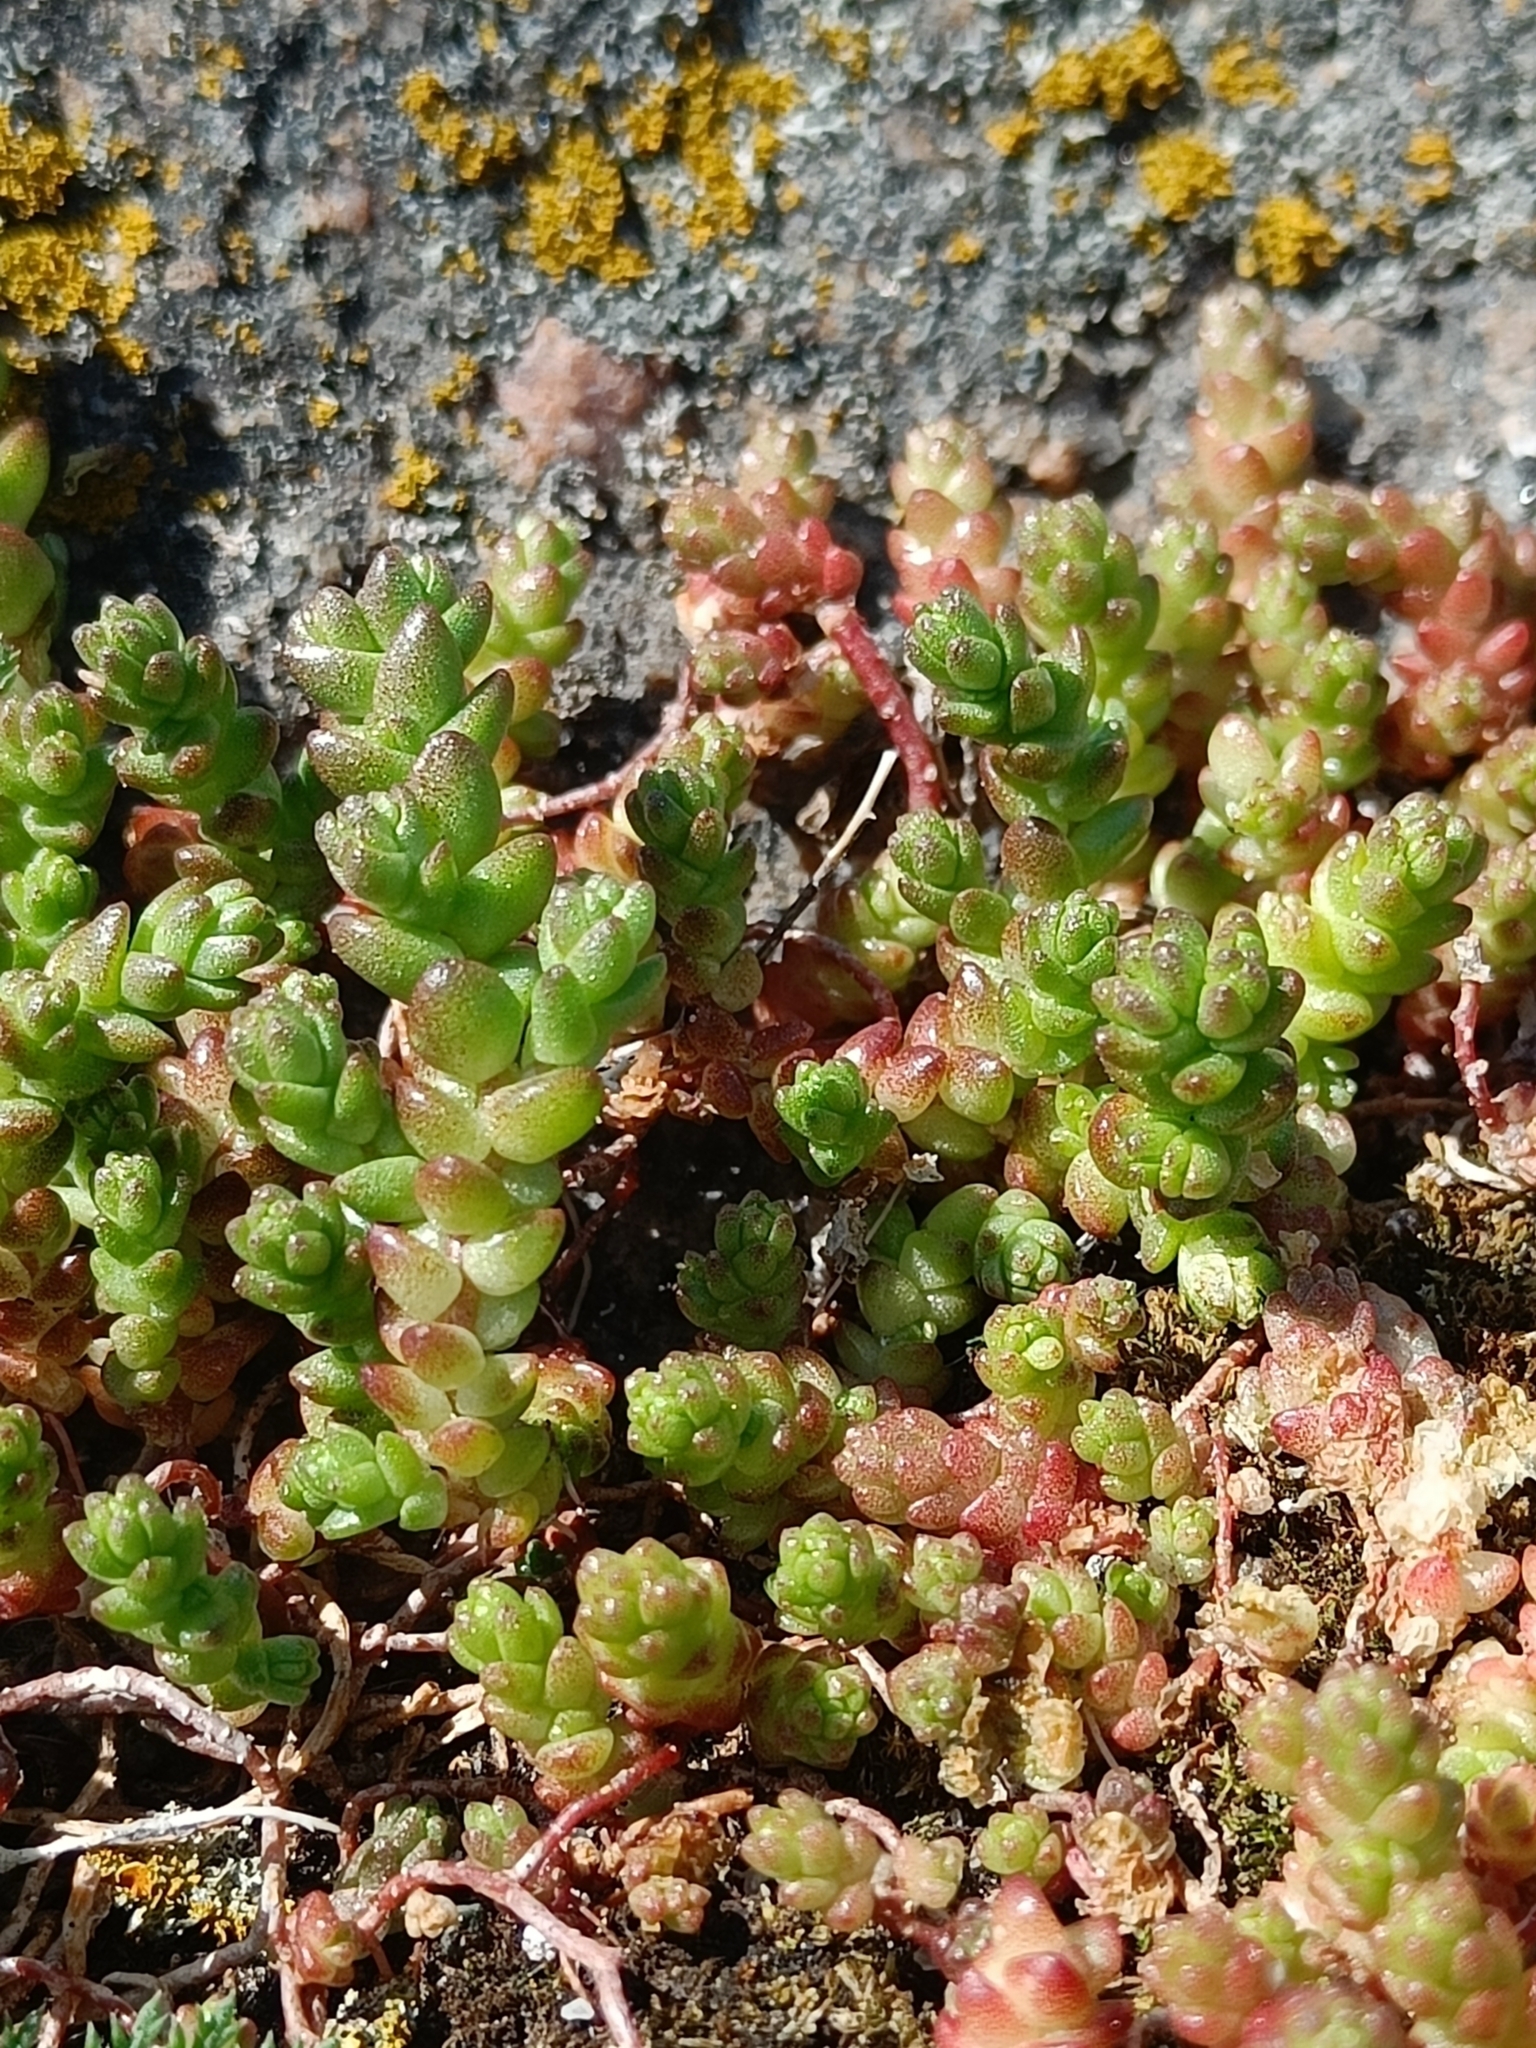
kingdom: Plantae
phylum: Tracheophyta
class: Magnoliopsida
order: Saxifragales
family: Crassulaceae
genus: Sedum
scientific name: Sedum acre
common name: Biting stonecrop
